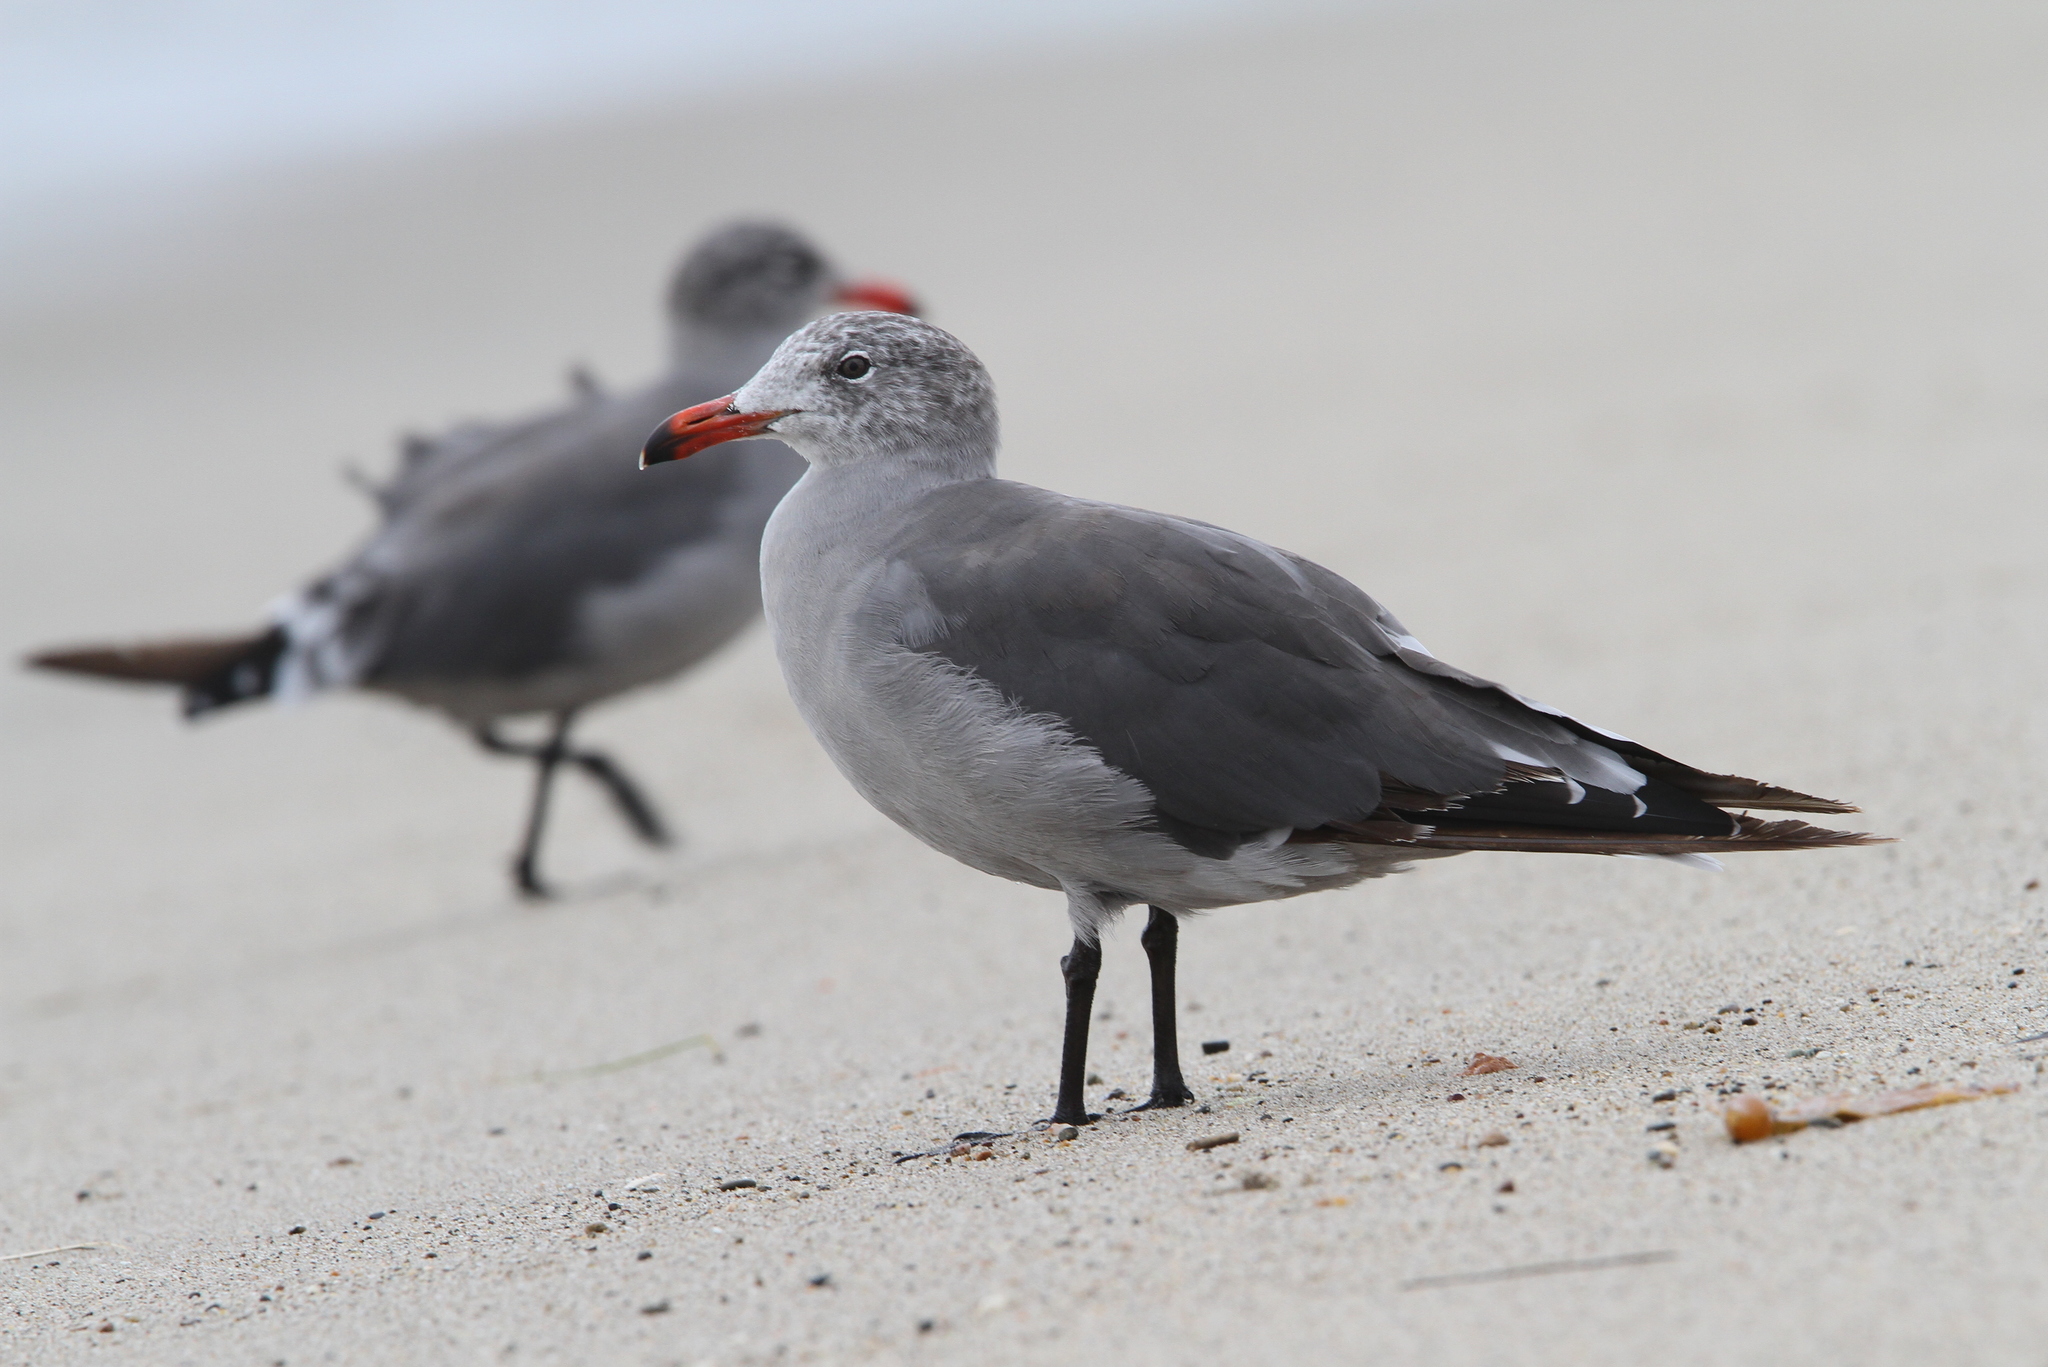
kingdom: Animalia
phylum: Chordata
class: Aves
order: Charadriiformes
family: Laridae
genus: Larus
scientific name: Larus heermanni
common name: Heermann's gull
